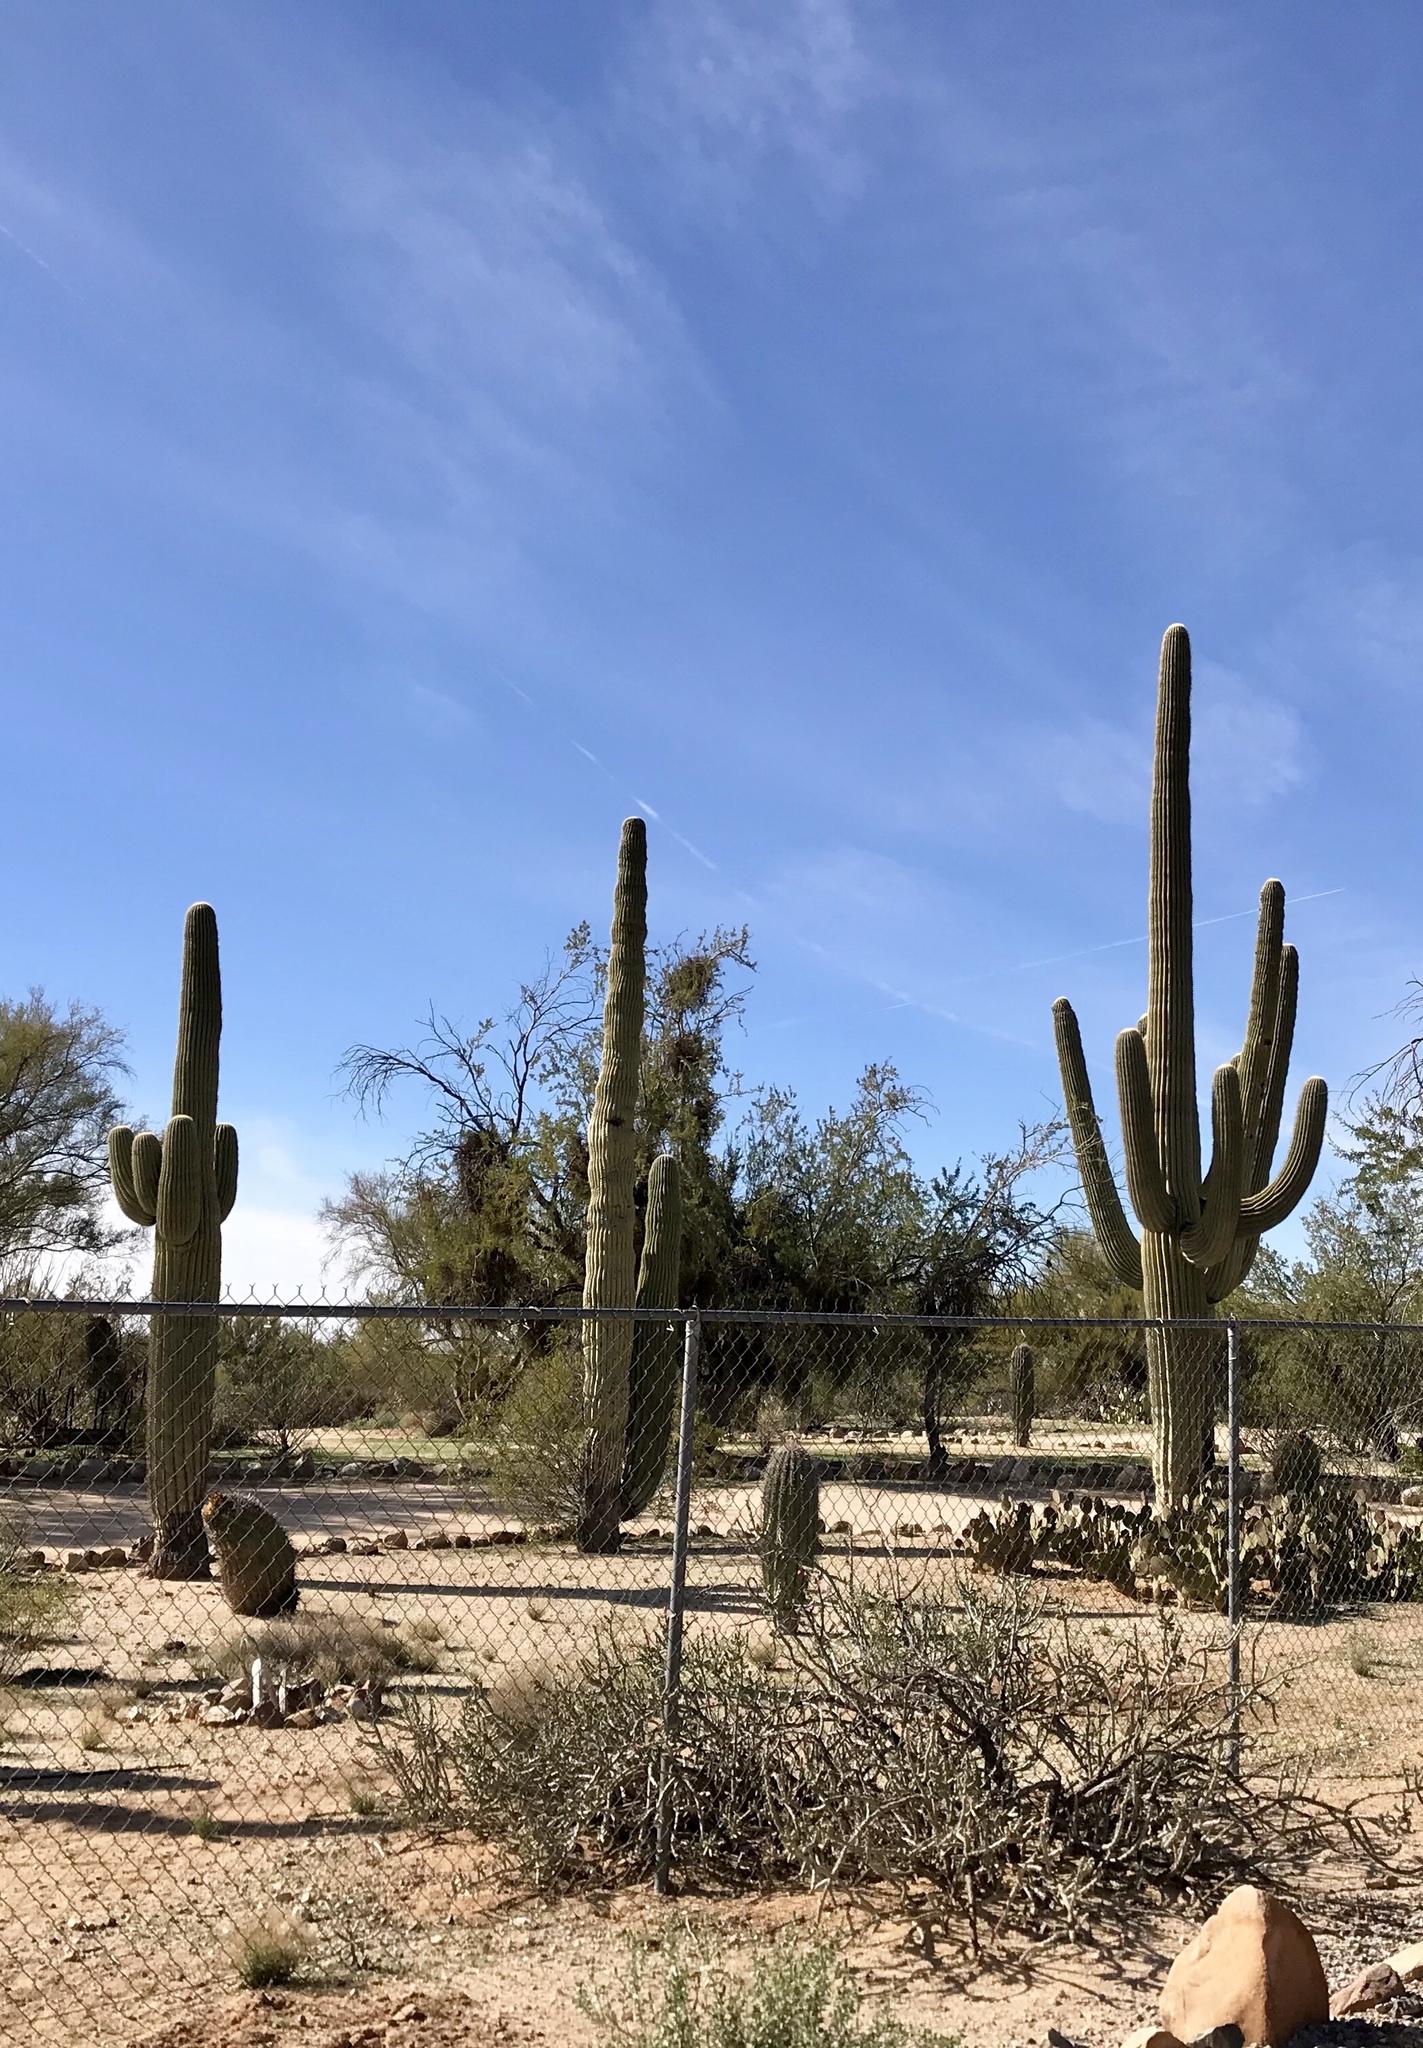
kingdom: Plantae
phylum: Tracheophyta
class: Magnoliopsida
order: Caryophyllales
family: Cactaceae
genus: Carnegiea
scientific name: Carnegiea gigantea
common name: Saguaro
